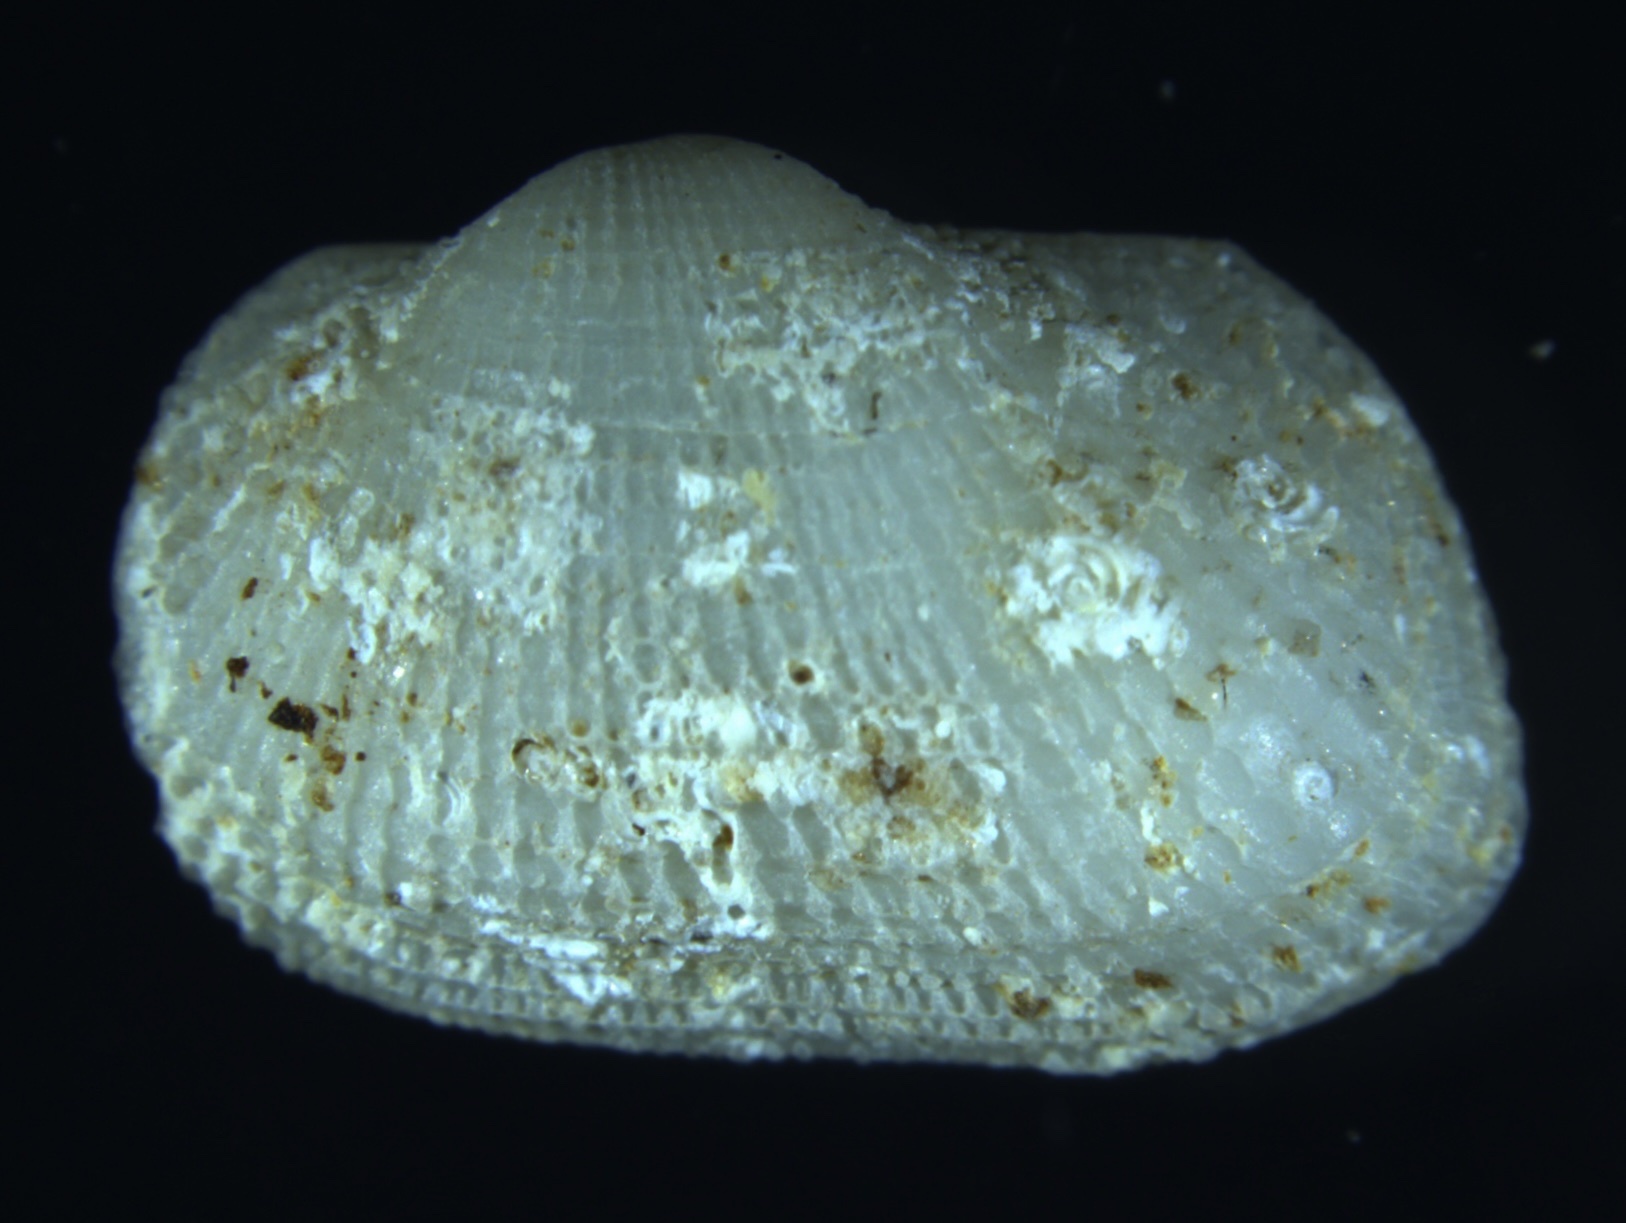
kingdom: Animalia
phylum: Mollusca
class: Bivalvia
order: Arcida
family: Noetiidae
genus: Arcopsis
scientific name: Arcopsis adamsi
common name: Cancellate miniature ark
